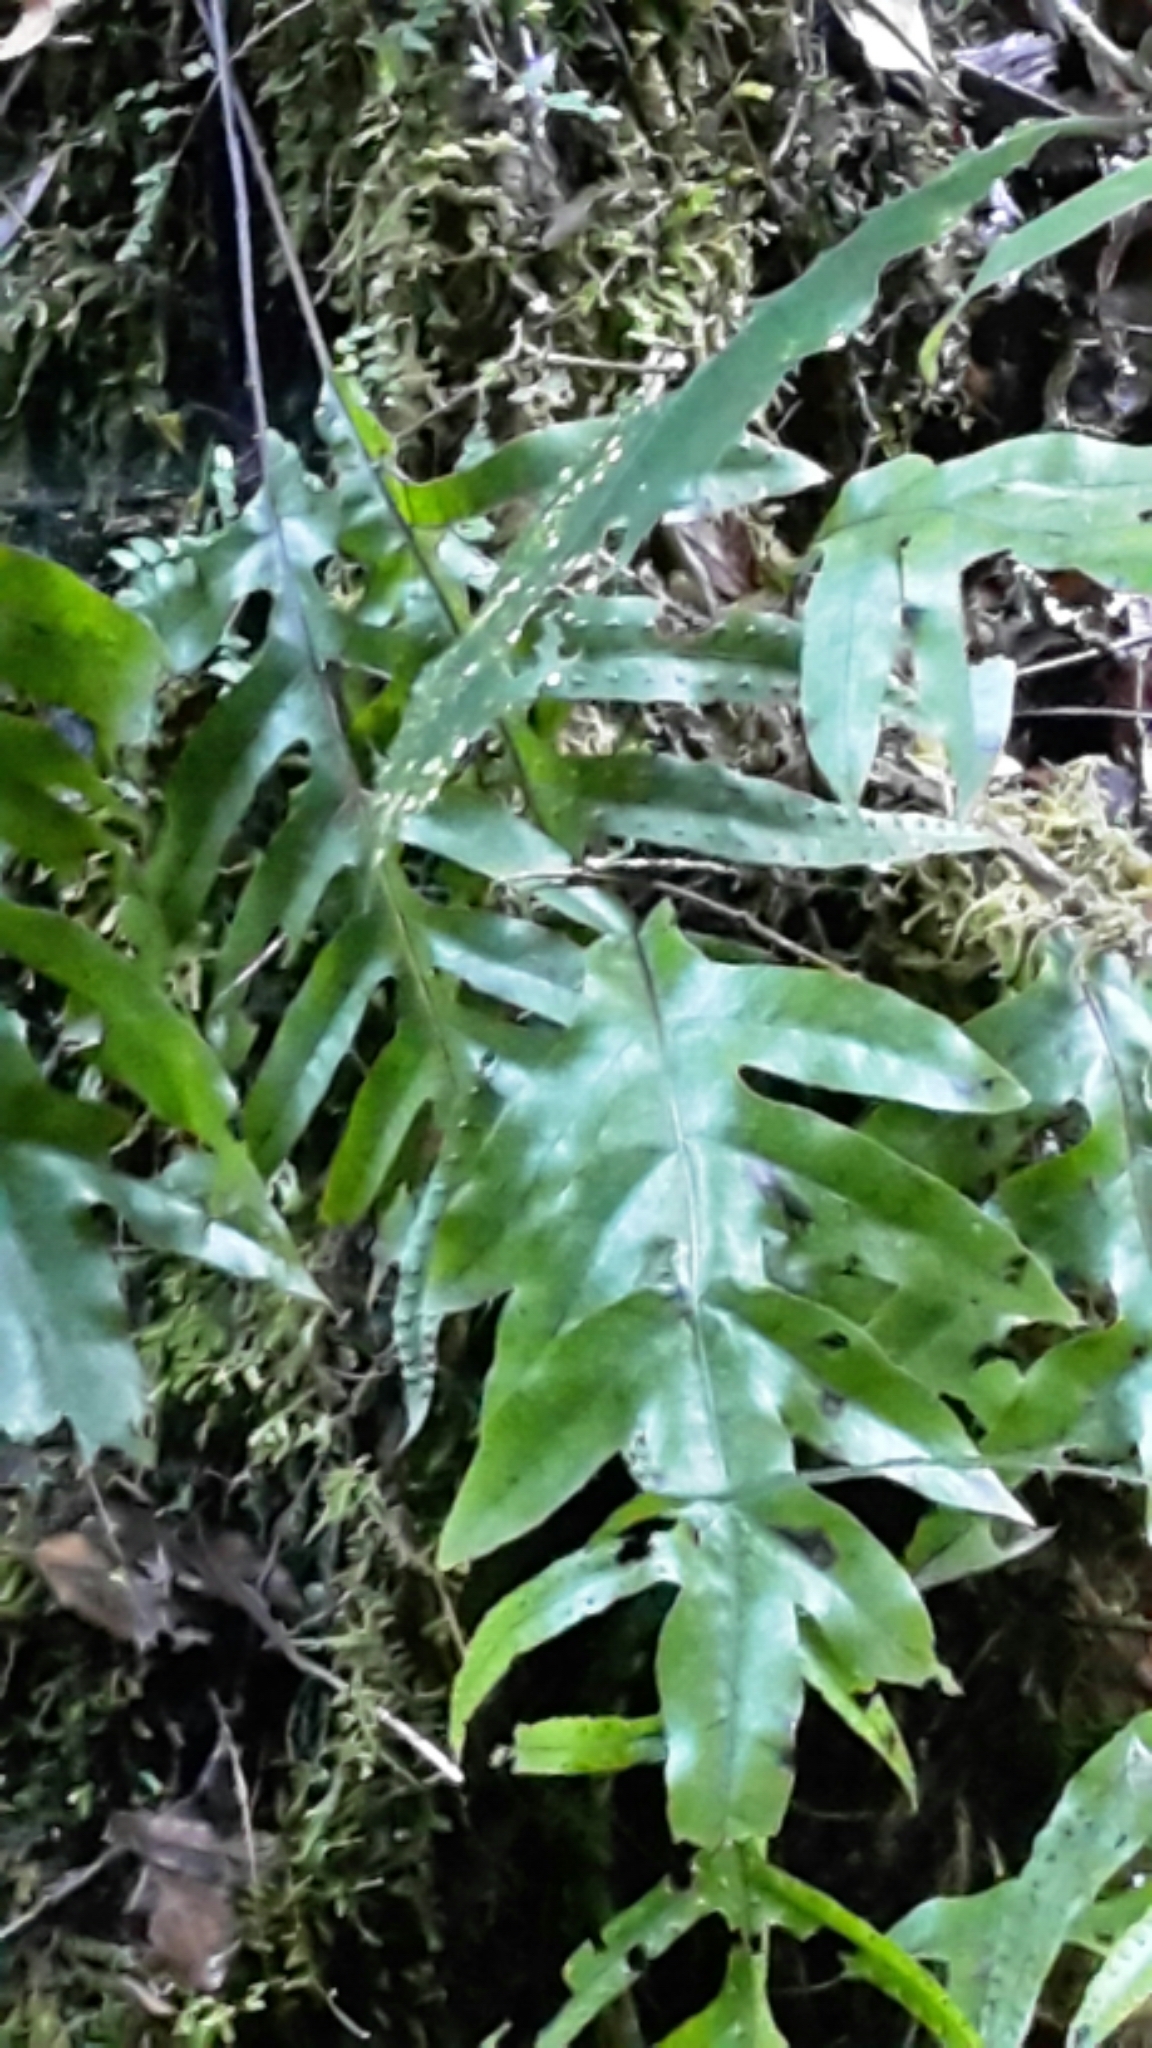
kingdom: Plantae
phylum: Tracheophyta
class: Polypodiopsida
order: Polypodiales
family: Polypodiaceae
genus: Lecanopteris
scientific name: Lecanopteris pustulata
